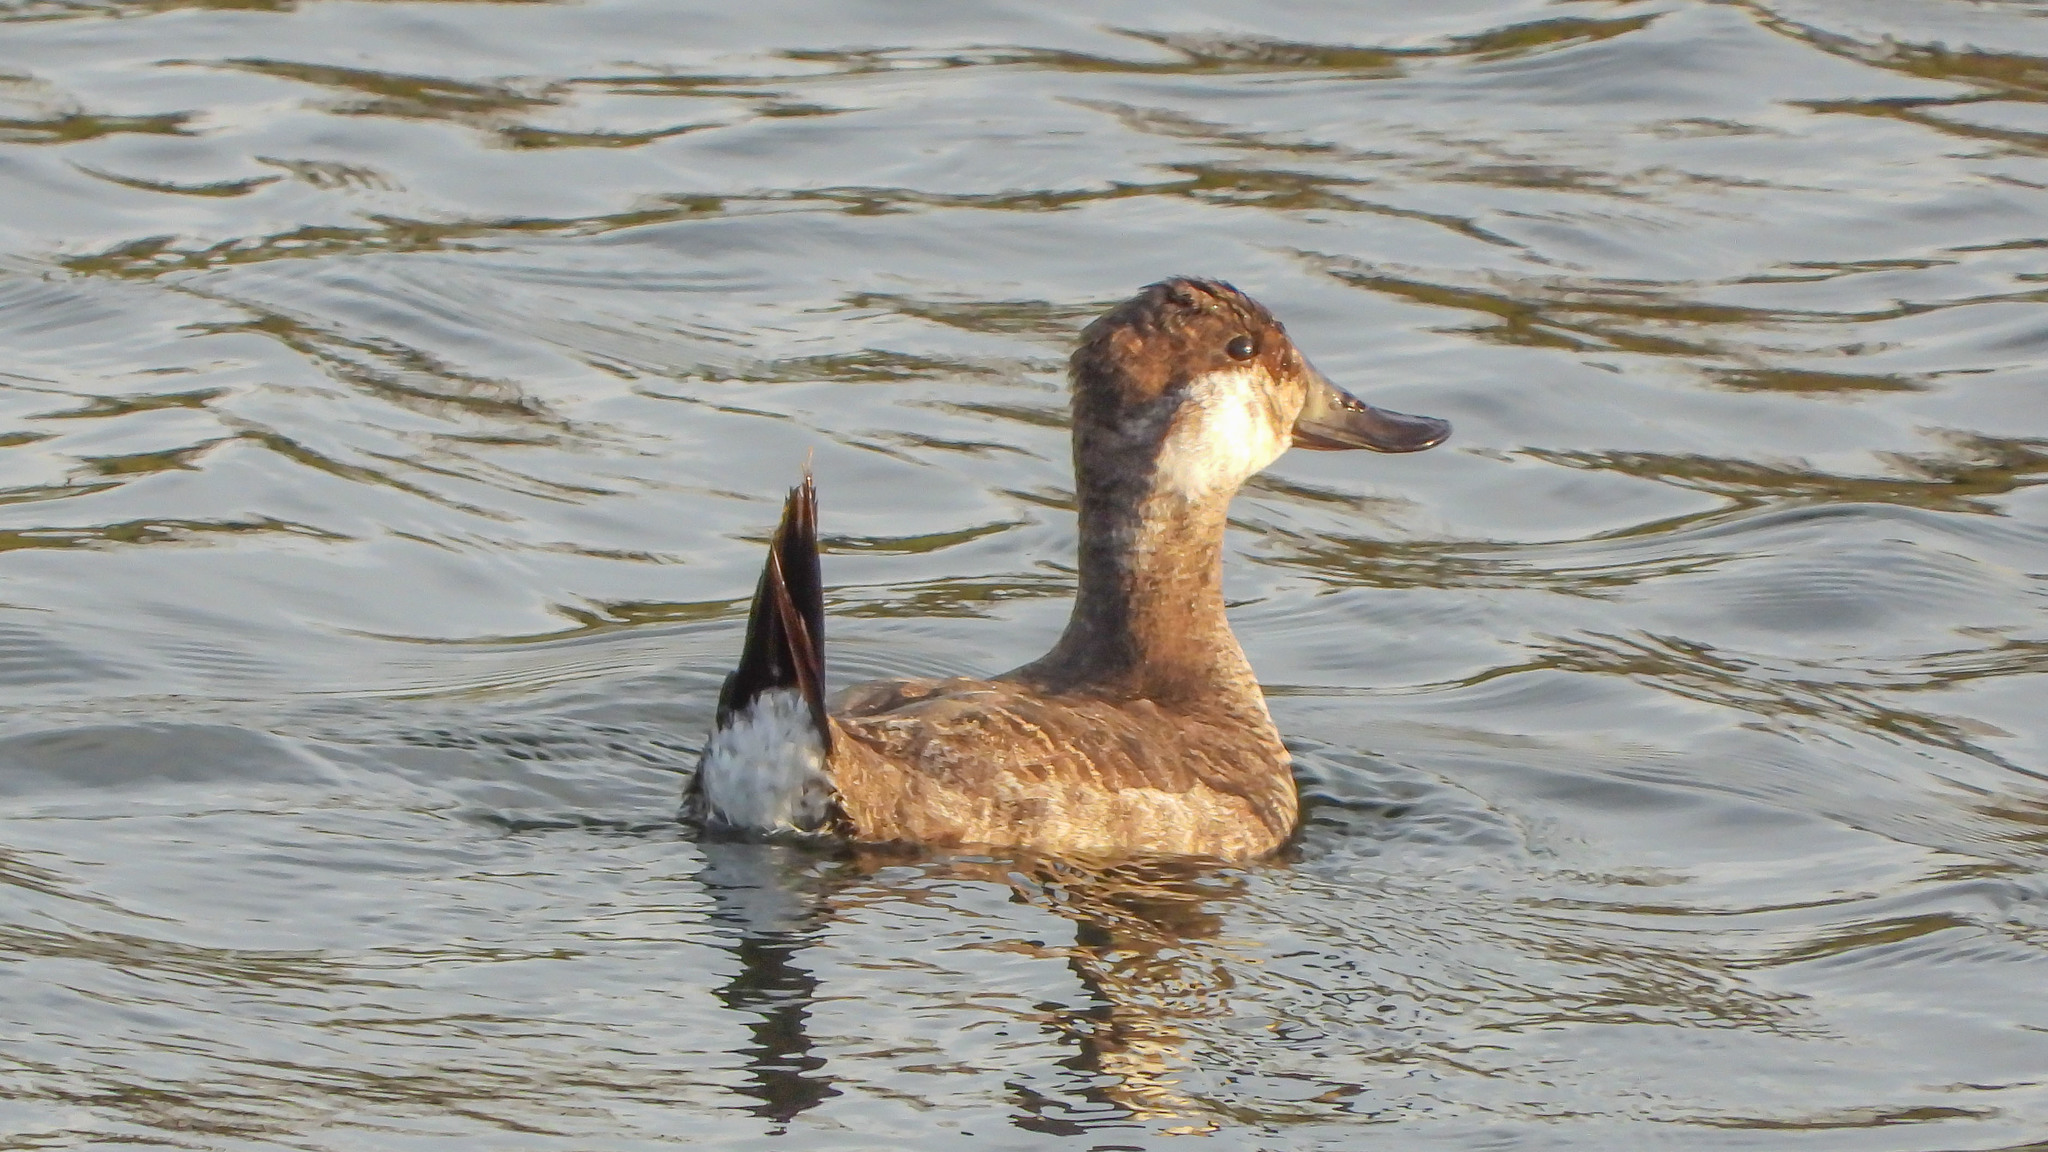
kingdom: Animalia
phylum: Chordata
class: Aves
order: Anseriformes
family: Anatidae
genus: Oxyura
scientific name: Oxyura jamaicensis
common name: Ruddy duck
